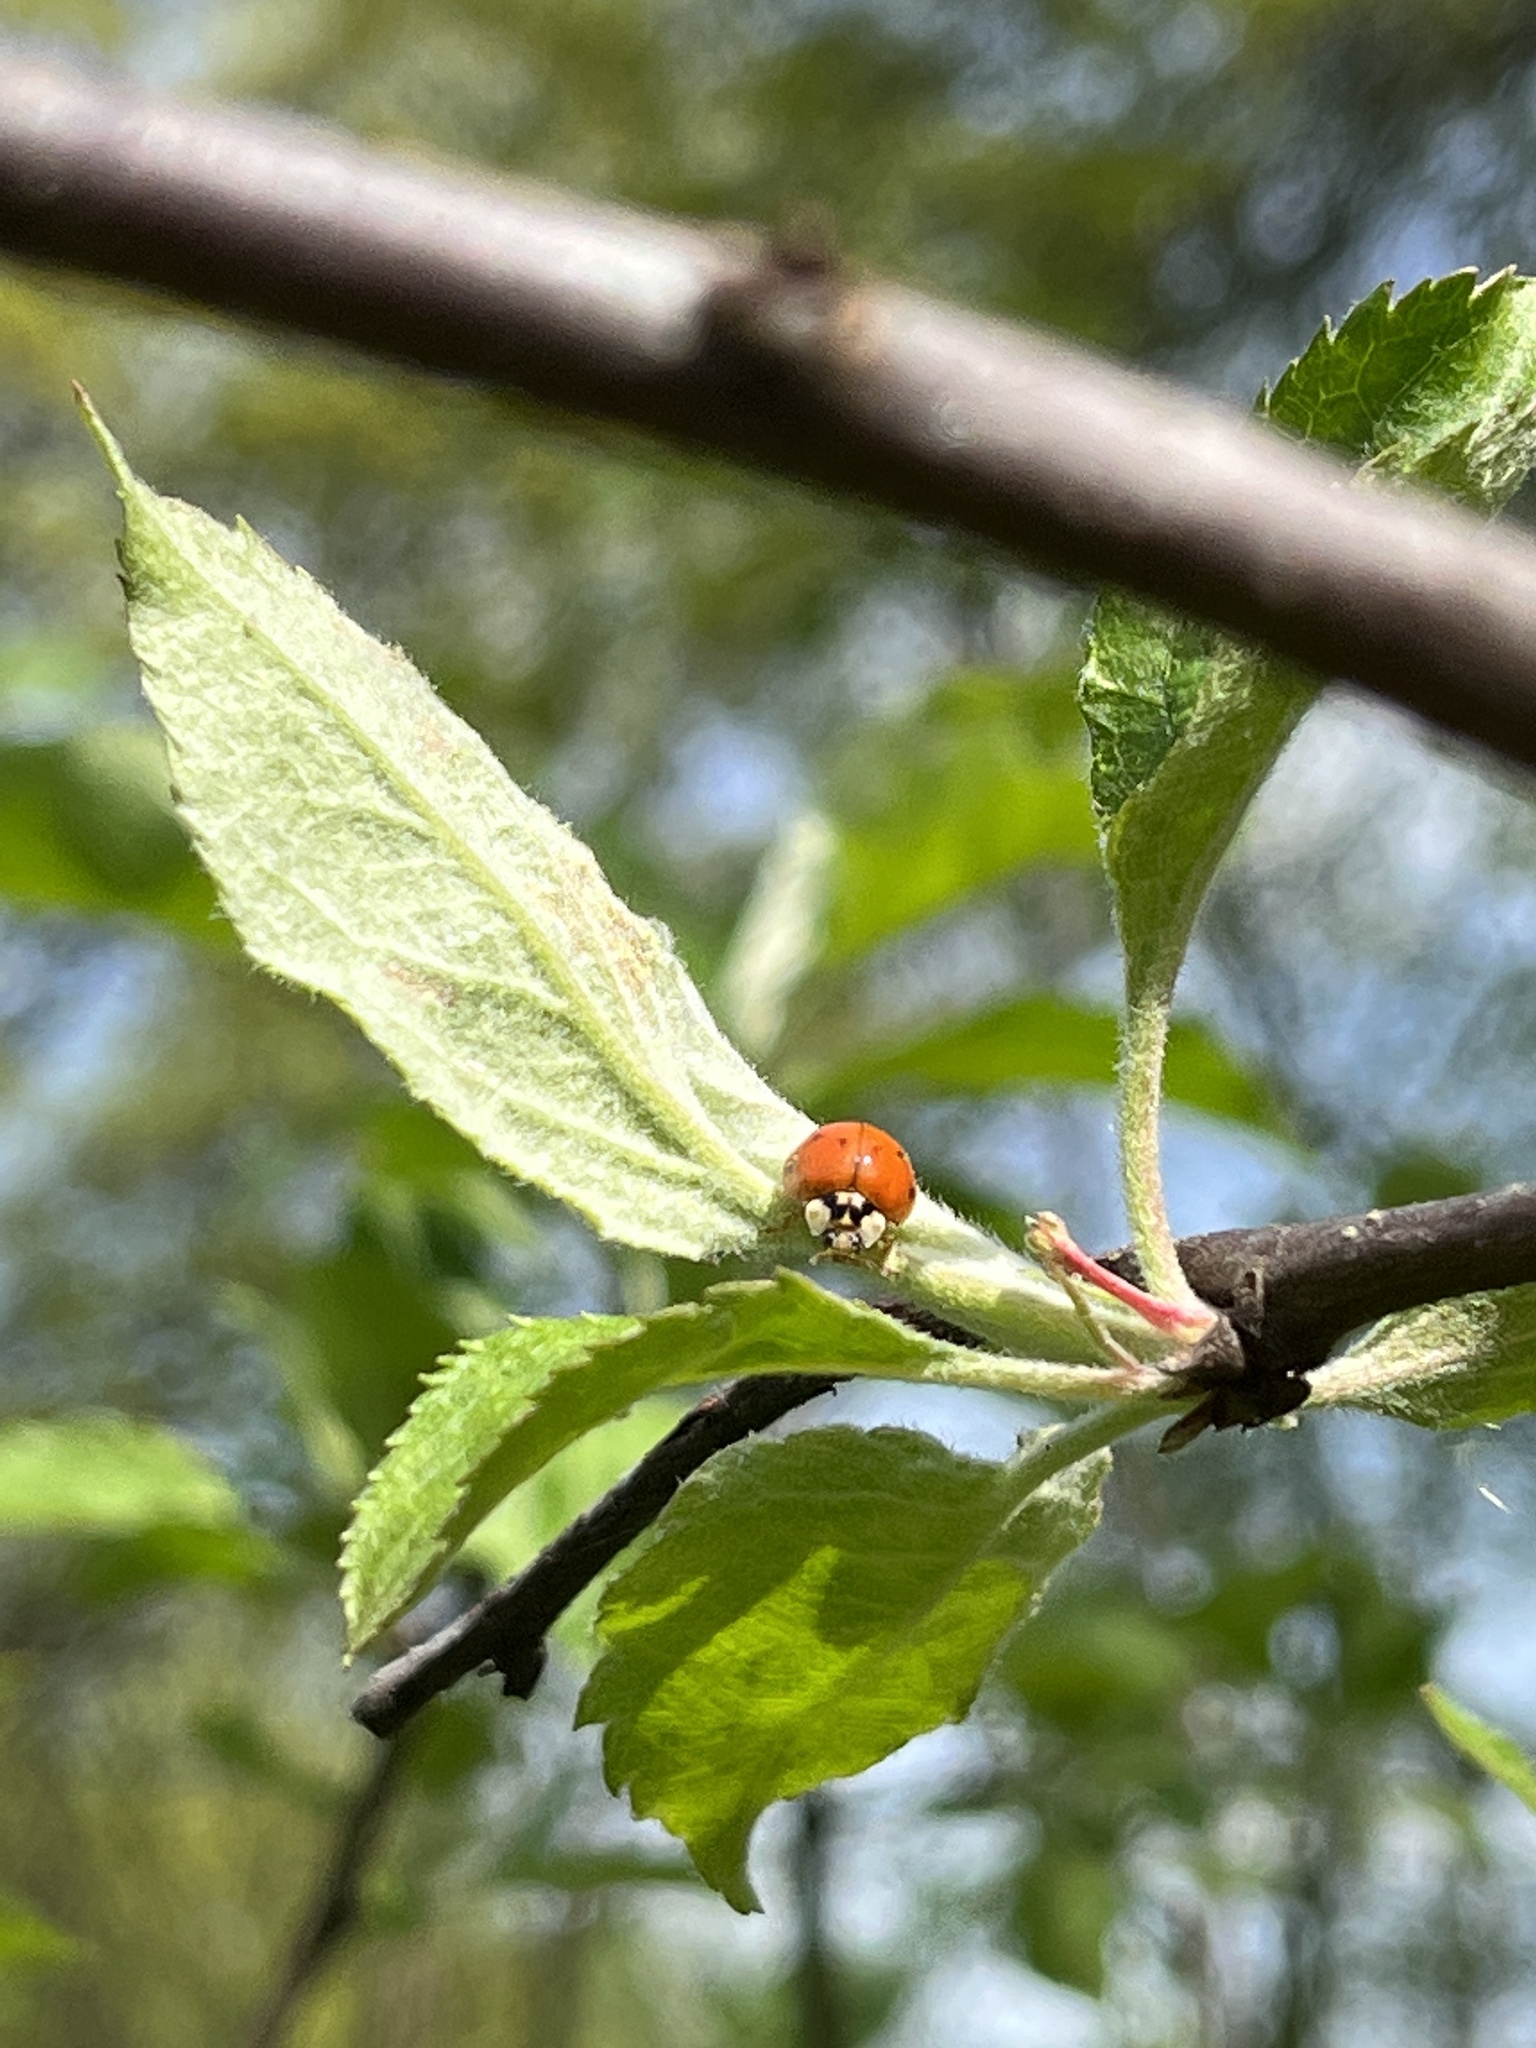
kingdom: Animalia
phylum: Arthropoda
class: Insecta
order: Coleoptera
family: Coccinellidae
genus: Harmonia
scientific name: Harmonia axyridis
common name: Harlequin ladybird
